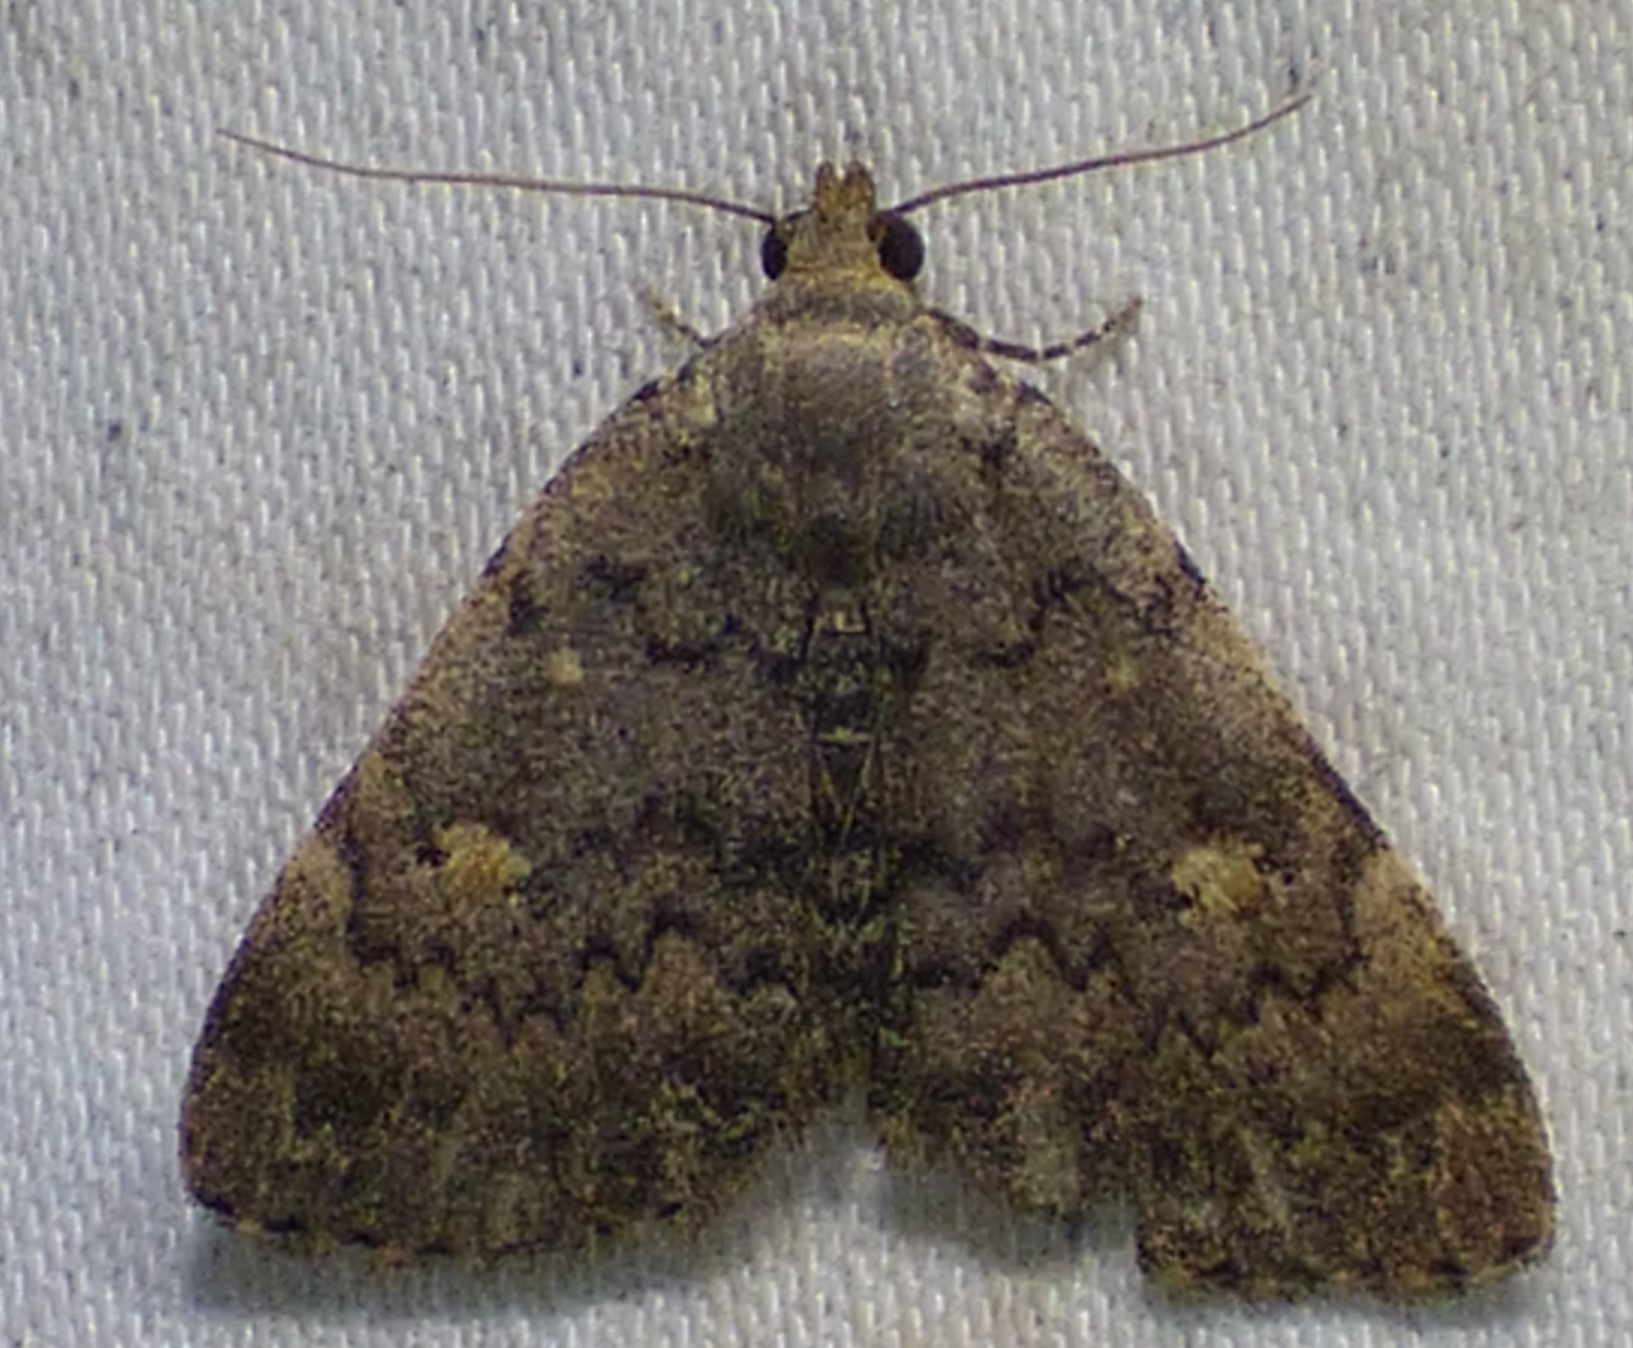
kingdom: Animalia
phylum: Arthropoda
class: Insecta
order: Lepidoptera
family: Erebidae
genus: Idia
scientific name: Idia aemula
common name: Common idia moth
